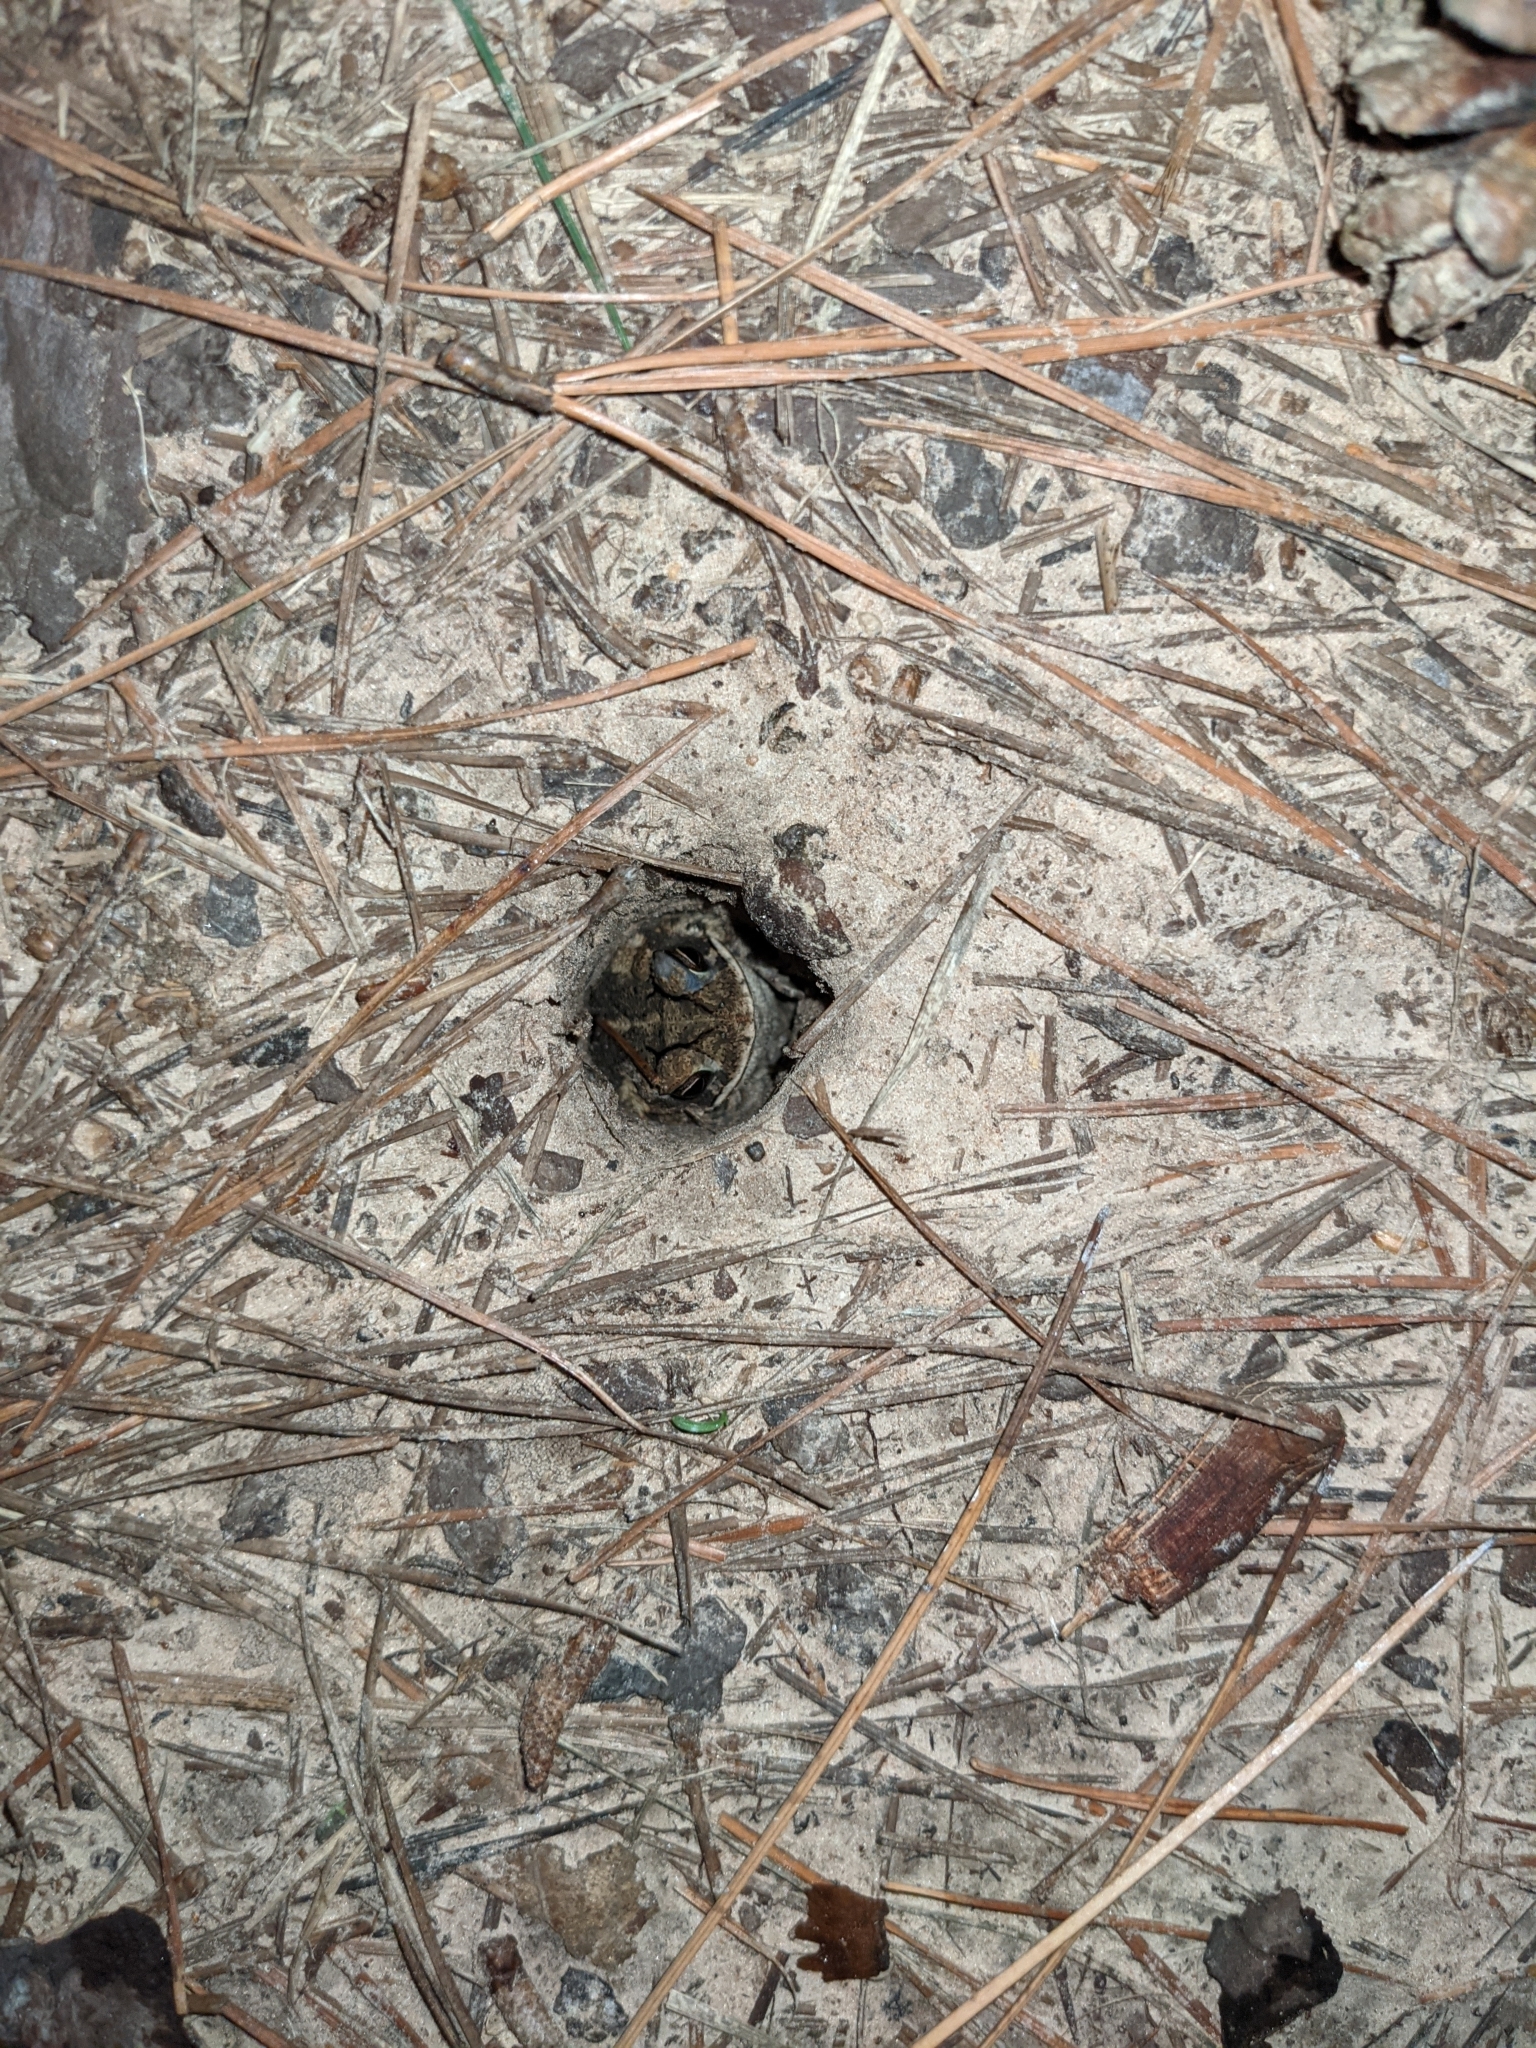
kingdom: Animalia
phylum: Chordata
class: Amphibia
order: Anura
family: Bufonidae
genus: Incilius
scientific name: Incilius nebulifer
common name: Gulf coast toad
